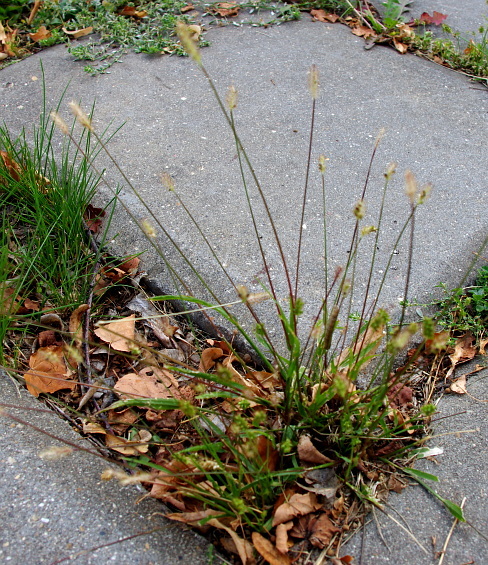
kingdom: Plantae
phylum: Tracheophyta
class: Liliopsida
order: Poales
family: Poaceae
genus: Setaria
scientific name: Setaria pumila
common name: Yellow bristle-grass
